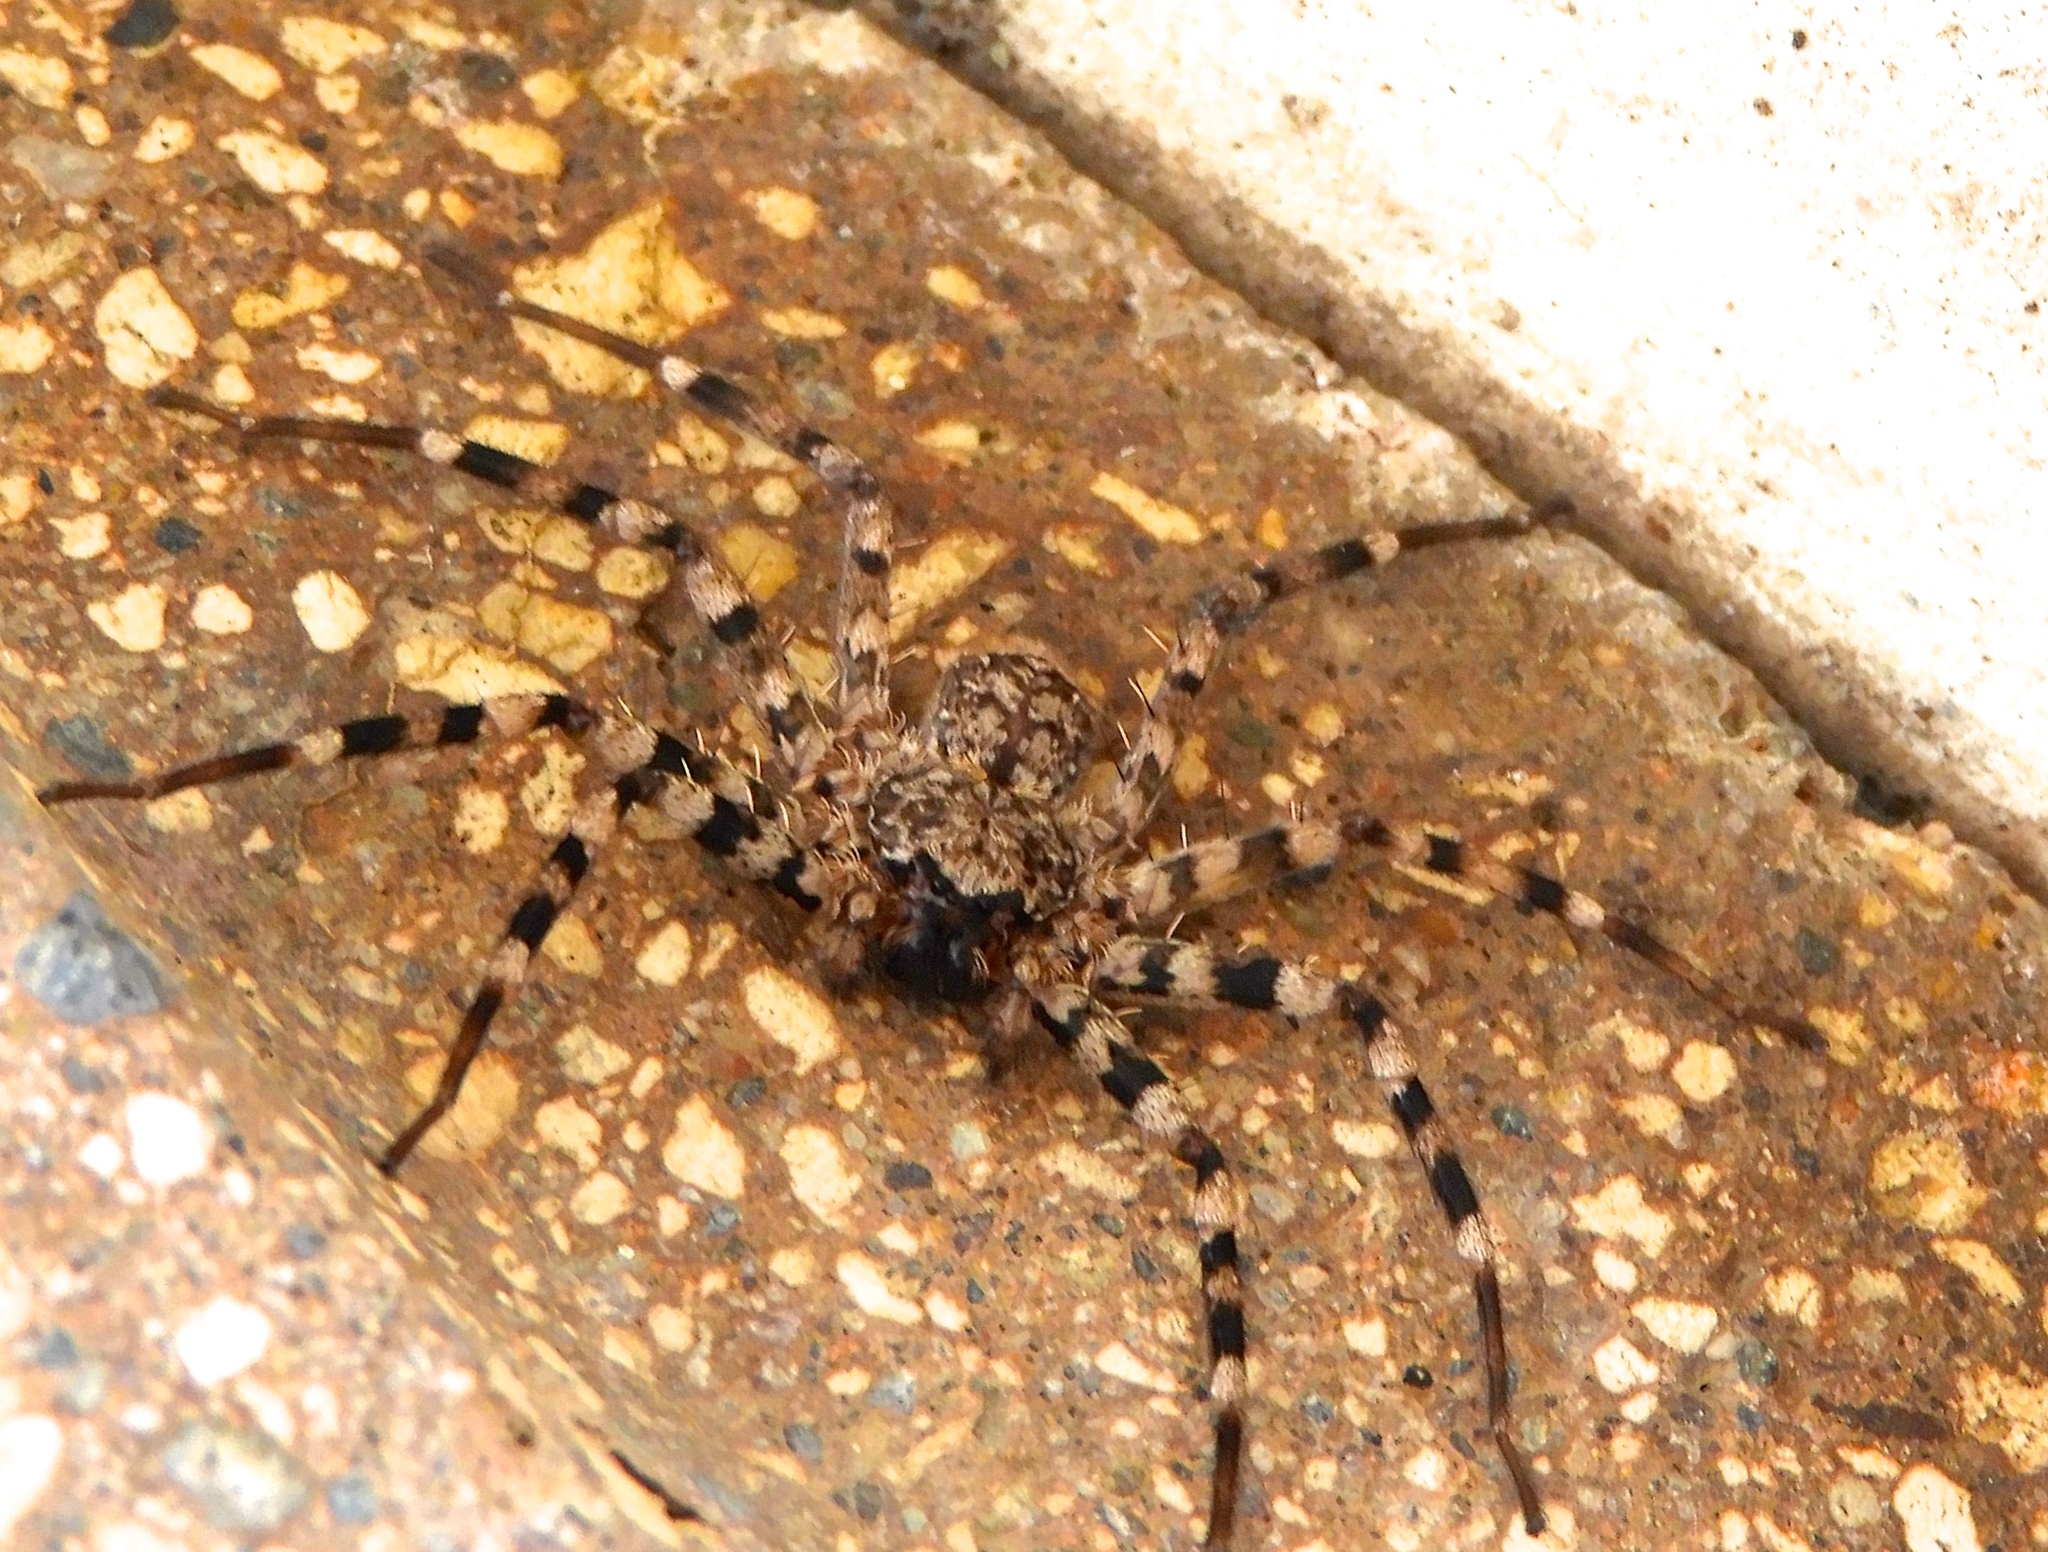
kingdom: Animalia
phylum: Arthropoda
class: Arachnida
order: Araneae
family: Selenopidae
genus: Selenops
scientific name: Selenops
